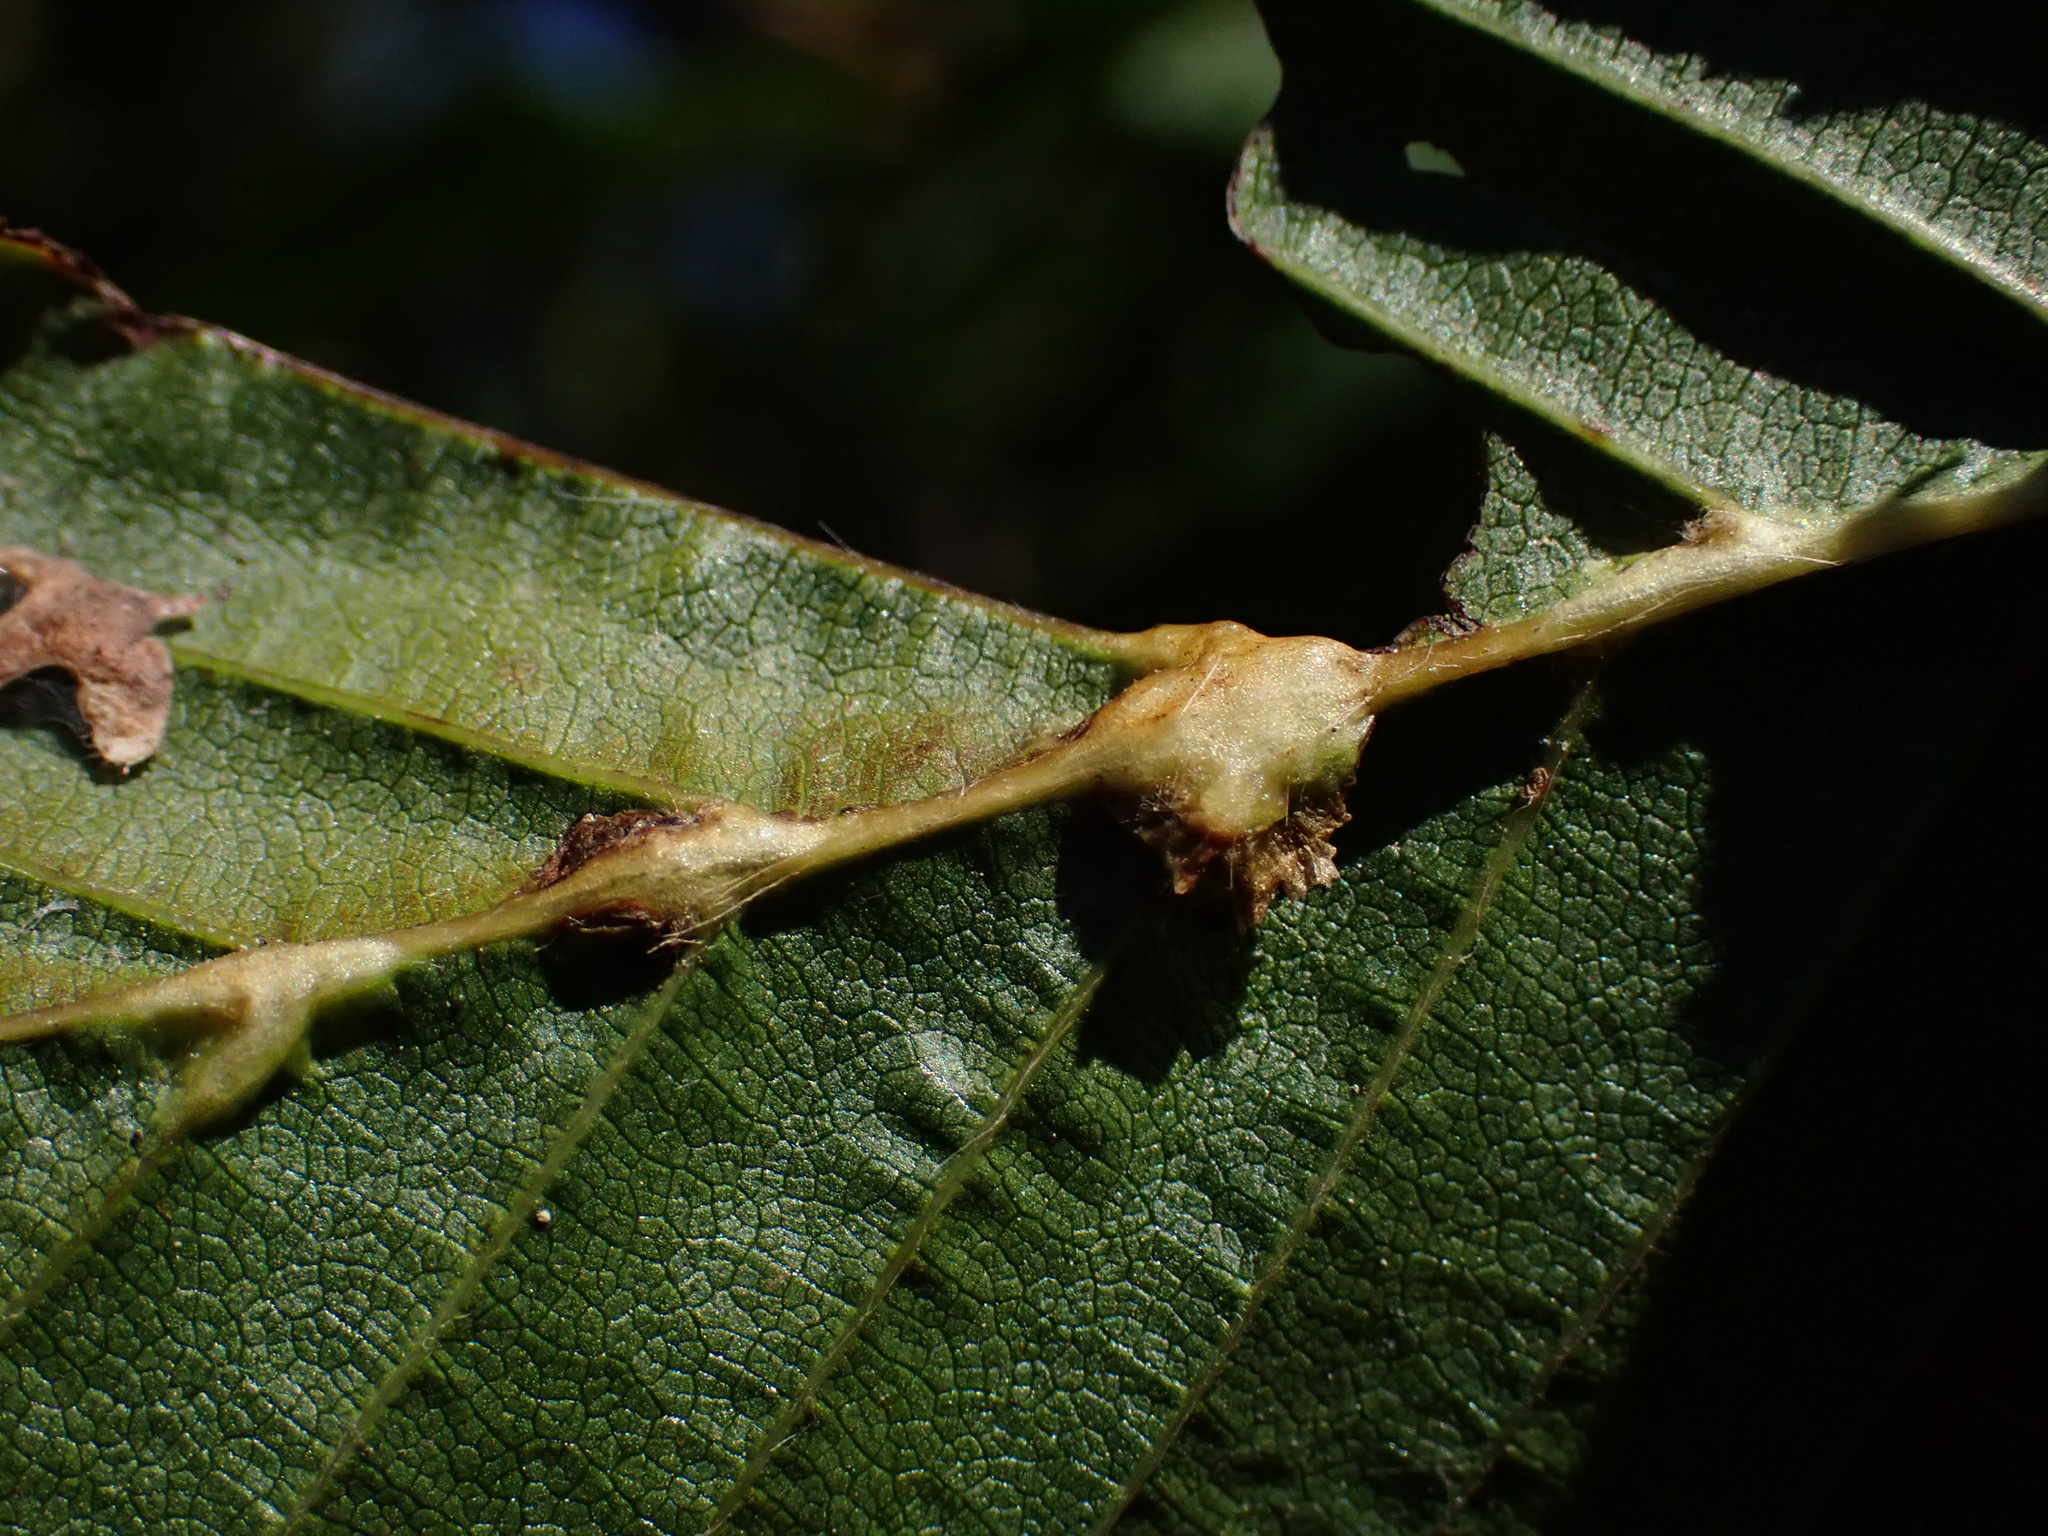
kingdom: Animalia
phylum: Arthropoda
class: Insecta
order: Diptera
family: Cecidomyiidae
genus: Zygiobia
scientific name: Zygiobia carpini
